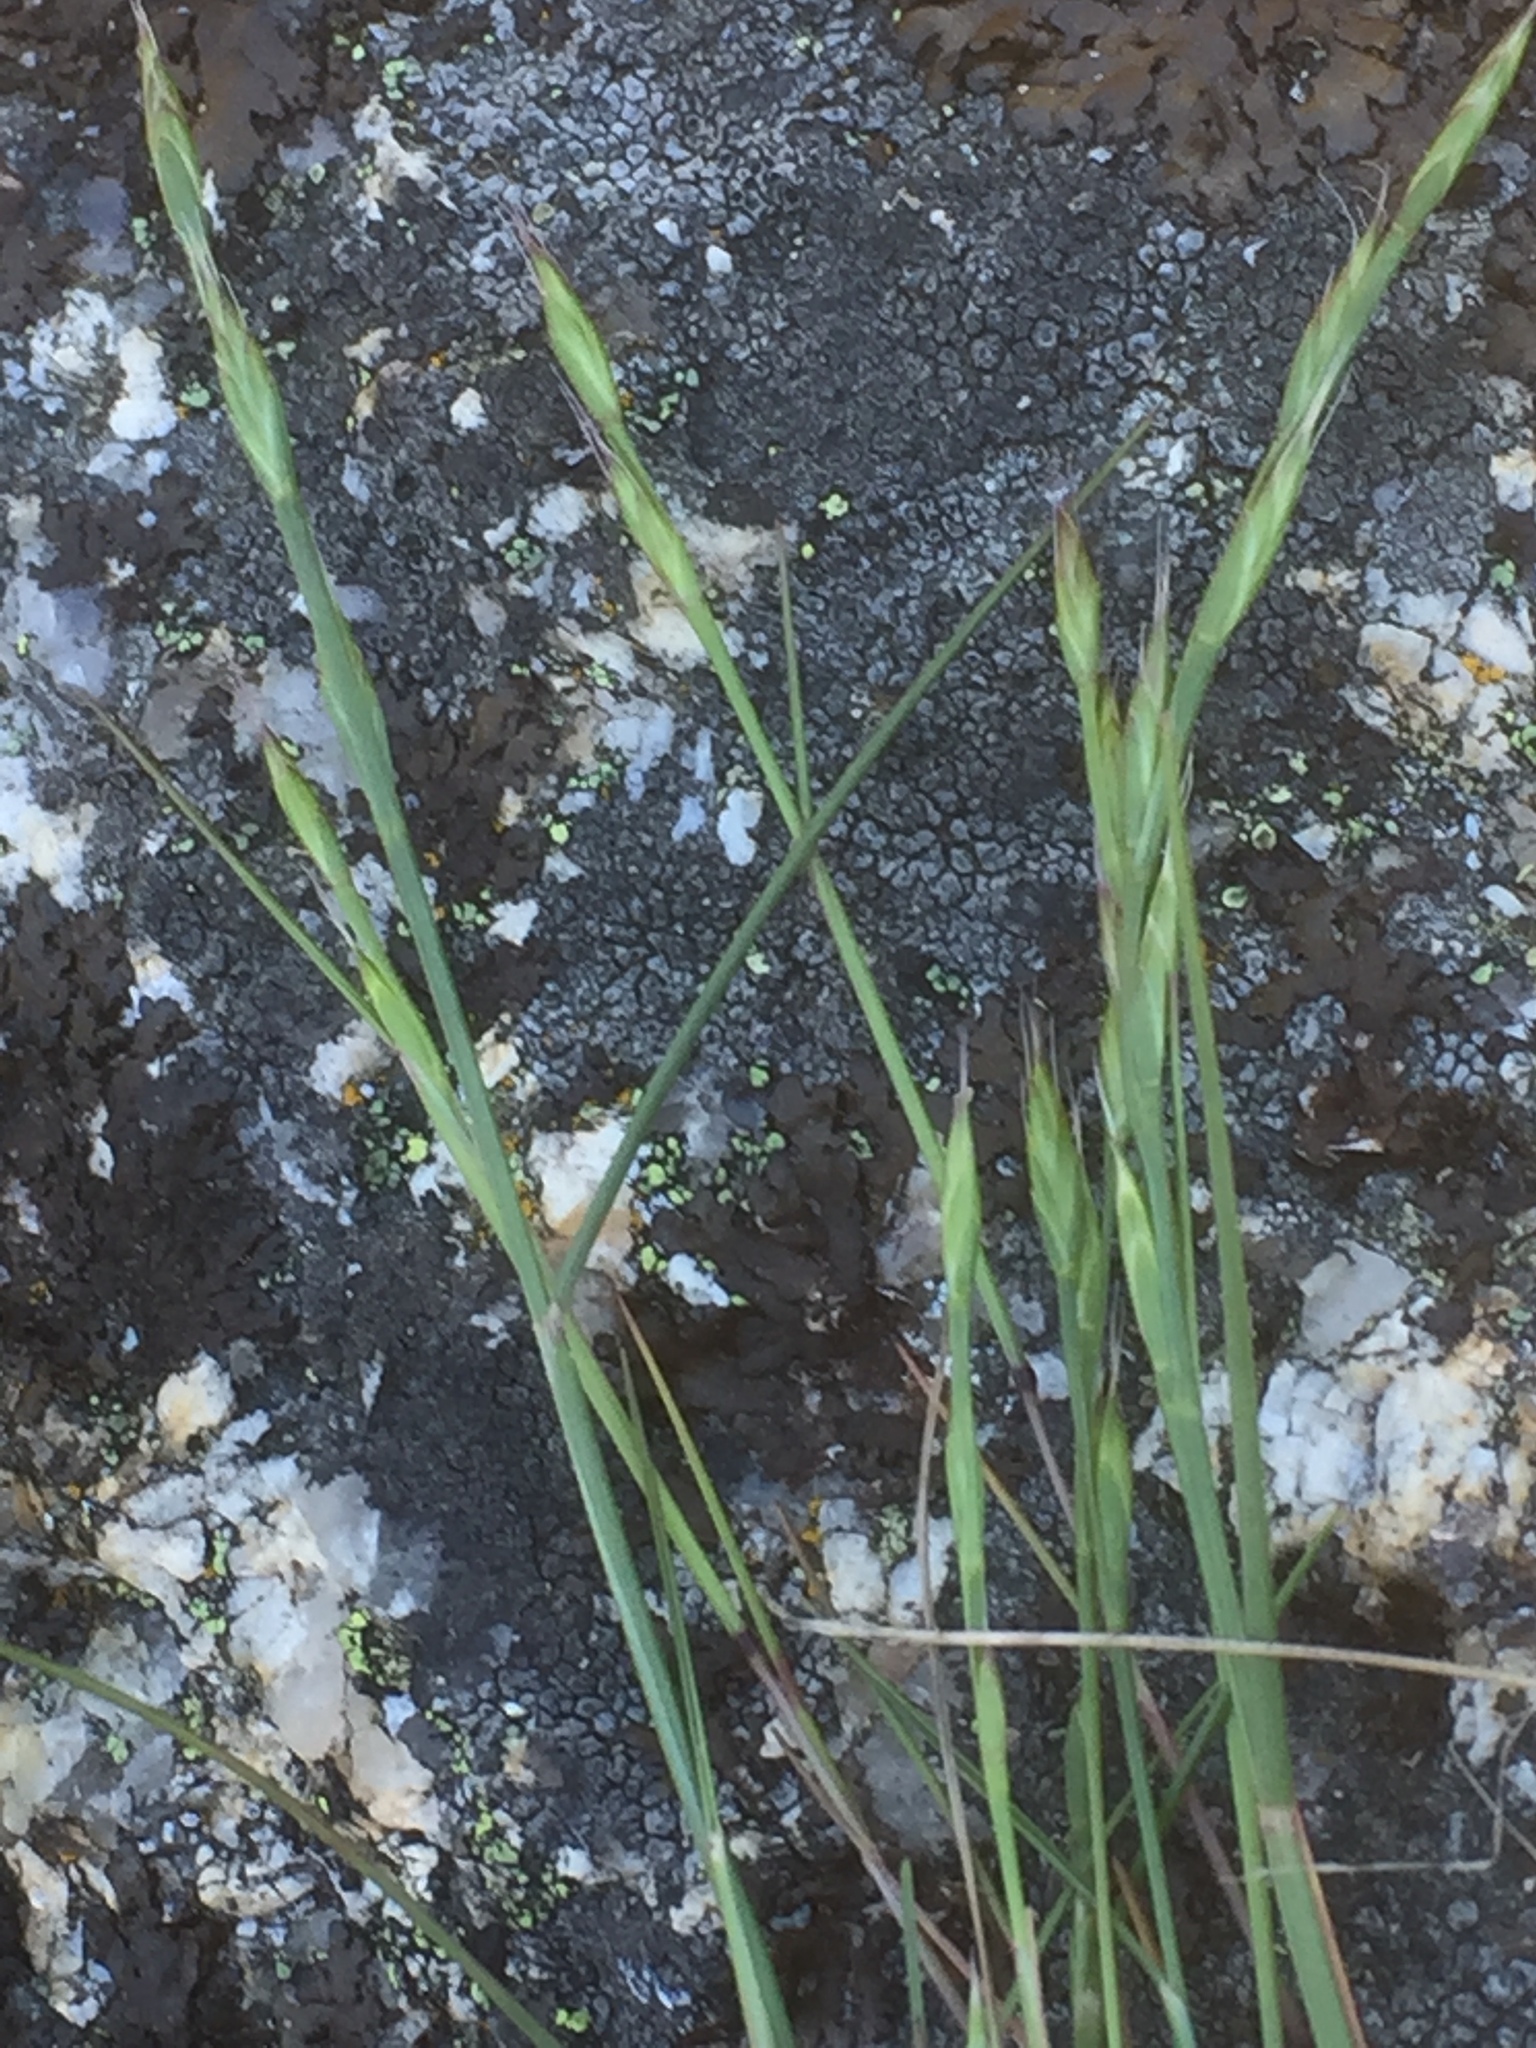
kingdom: Plantae
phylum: Tracheophyta
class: Liliopsida
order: Poales
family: Poaceae
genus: Brachypodium
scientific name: Brachypodium distachyon
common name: Stiff brome
